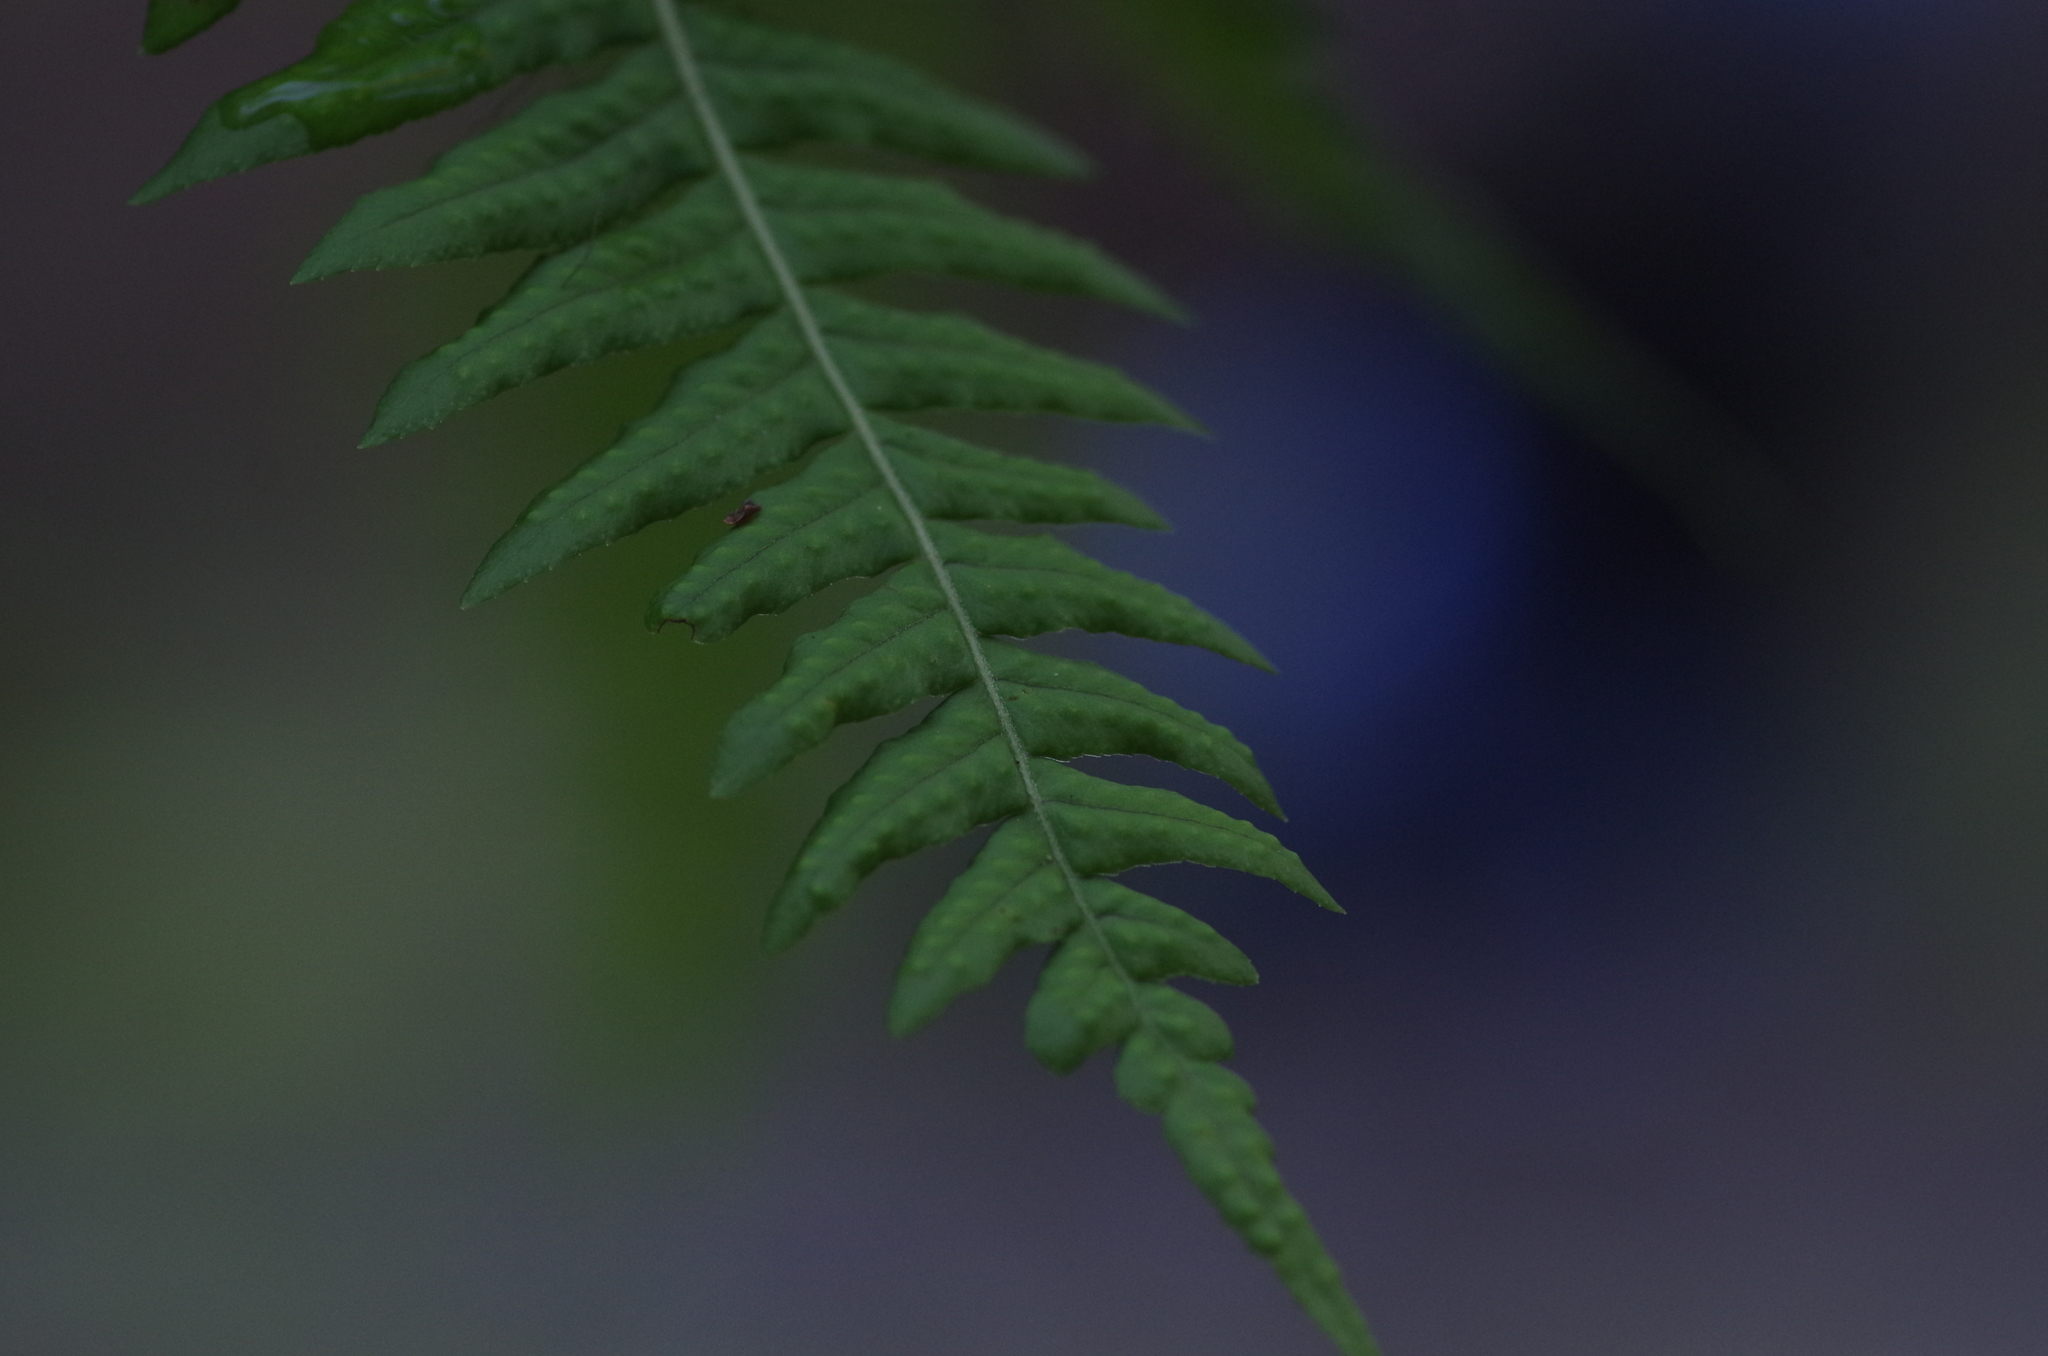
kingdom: Plantae
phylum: Tracheophyta
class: Polypodiopsida
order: Polypodiales
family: Polypodiaceae
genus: Polypodium
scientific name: Polypodium glycyrrhiza
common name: Licorice fern
